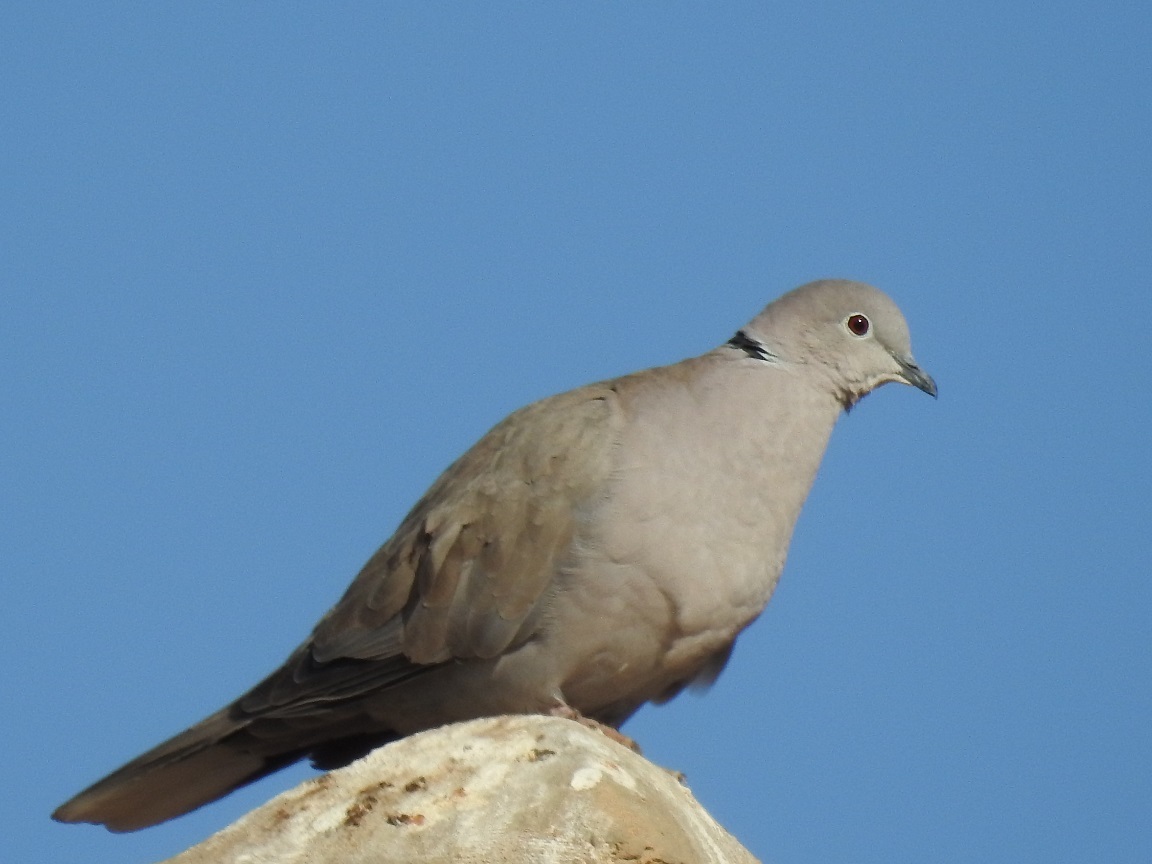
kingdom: Animalia
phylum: Chordata
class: Aves
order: Columbiformes
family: Columbidae
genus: Streptopelia
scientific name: Streptopelia decaocto
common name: Eurasian collared dove
